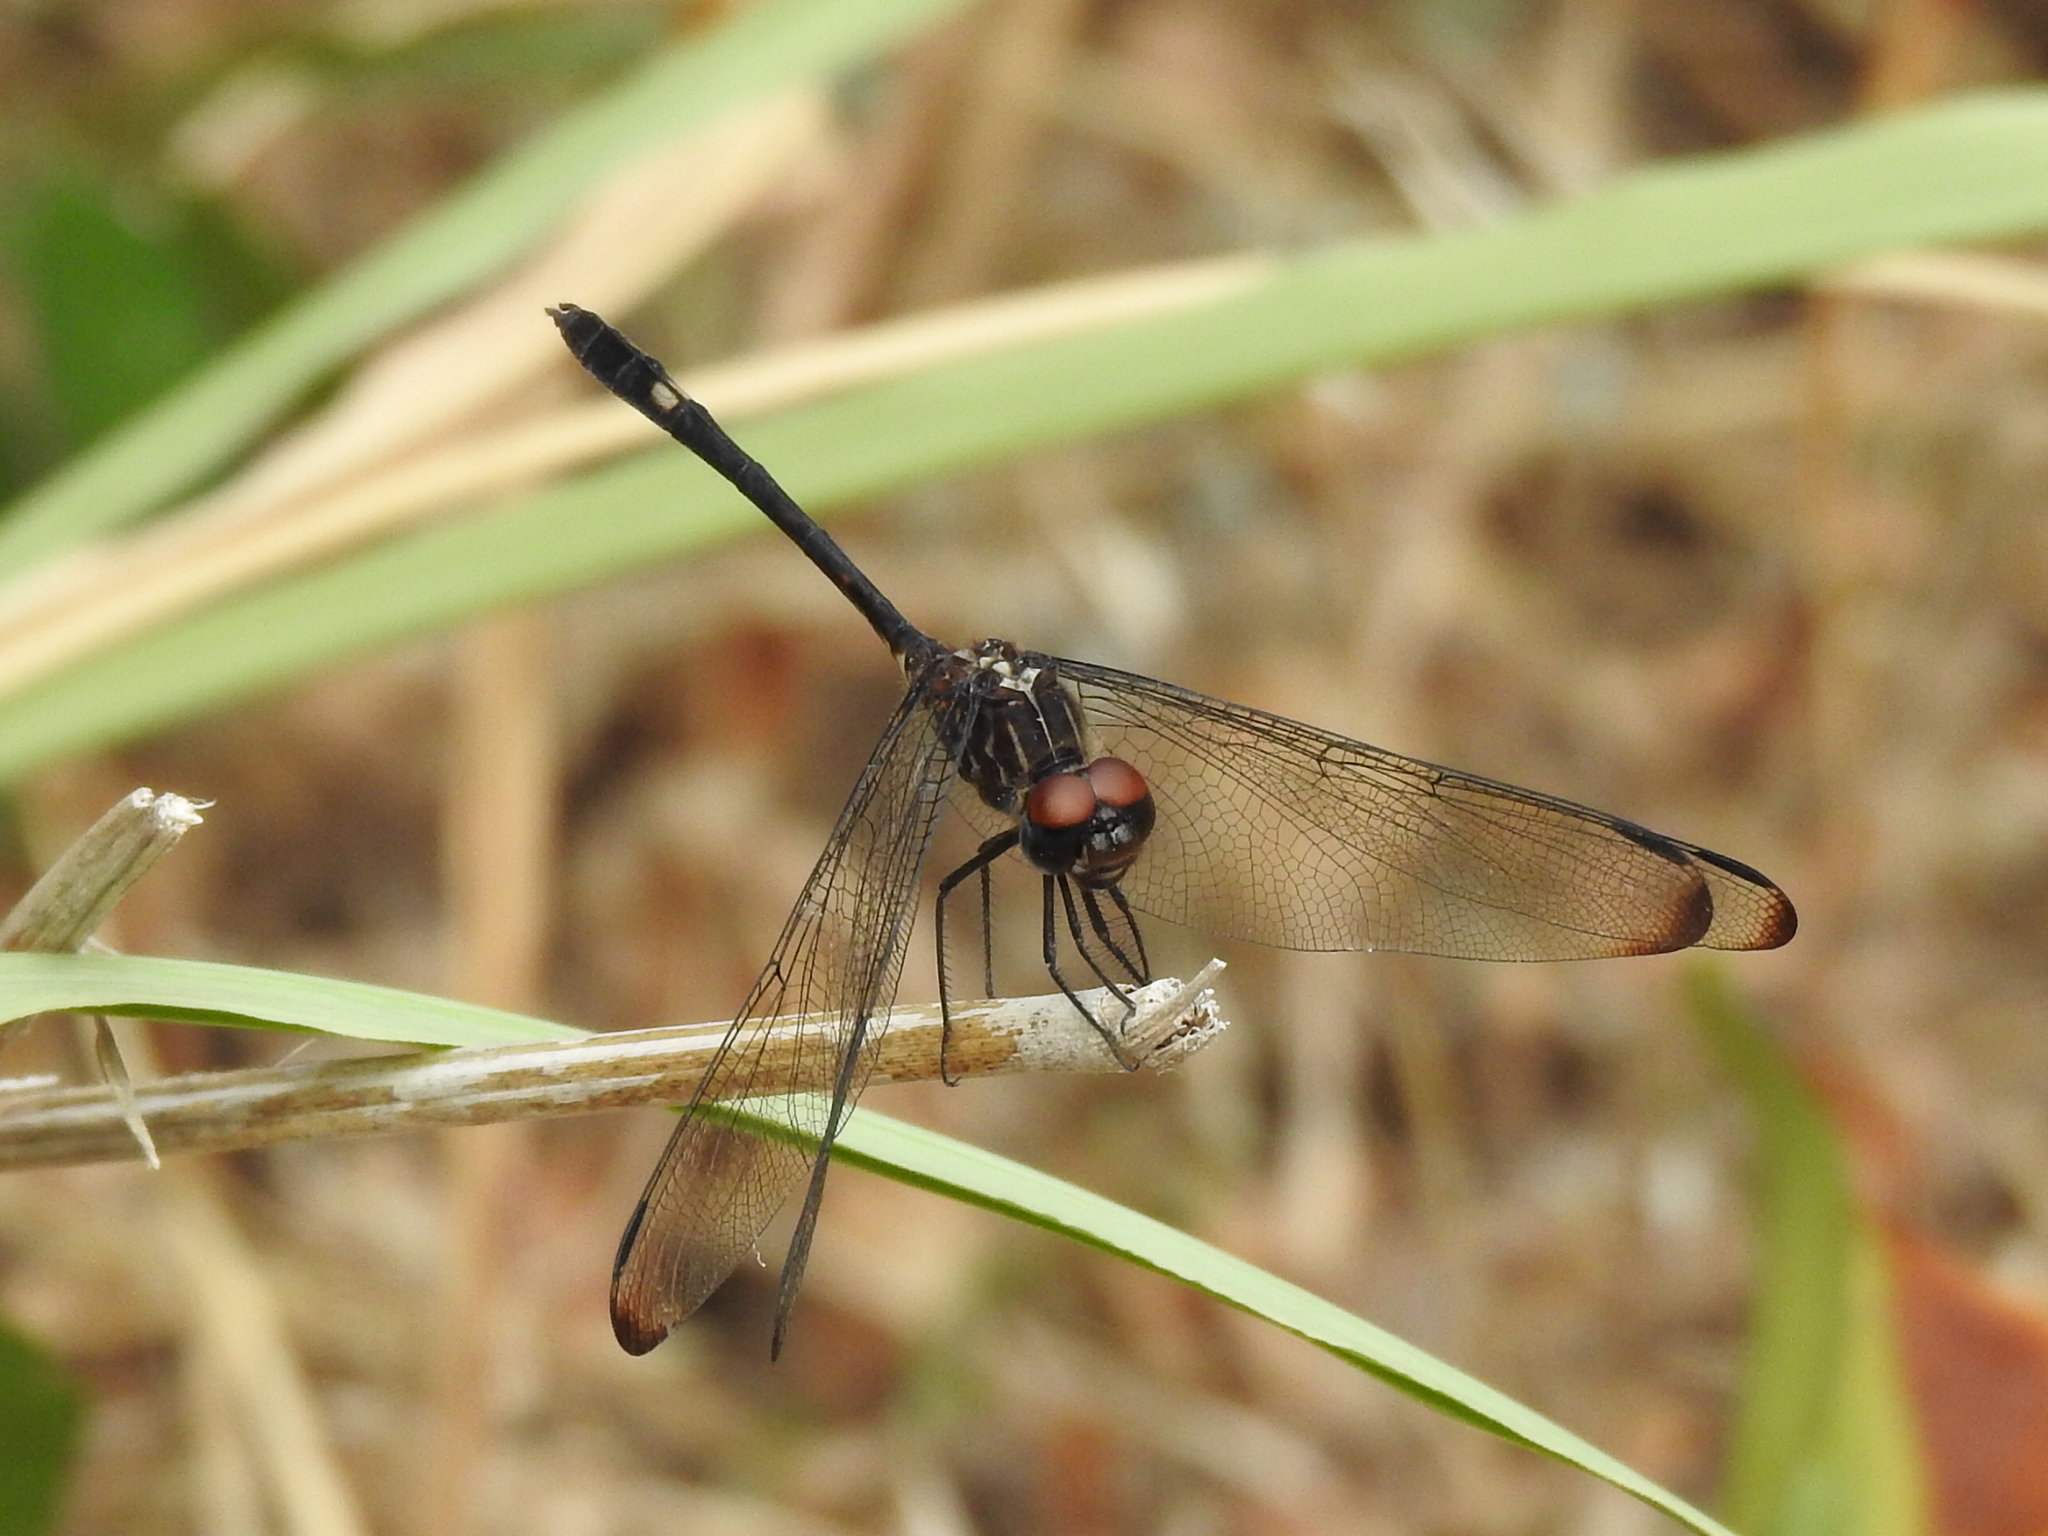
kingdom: Animalia
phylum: Arthropoda
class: Insecta
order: Odonata
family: Libellulidae
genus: Dythemis
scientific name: Dythemis velox
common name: Swift setwing
